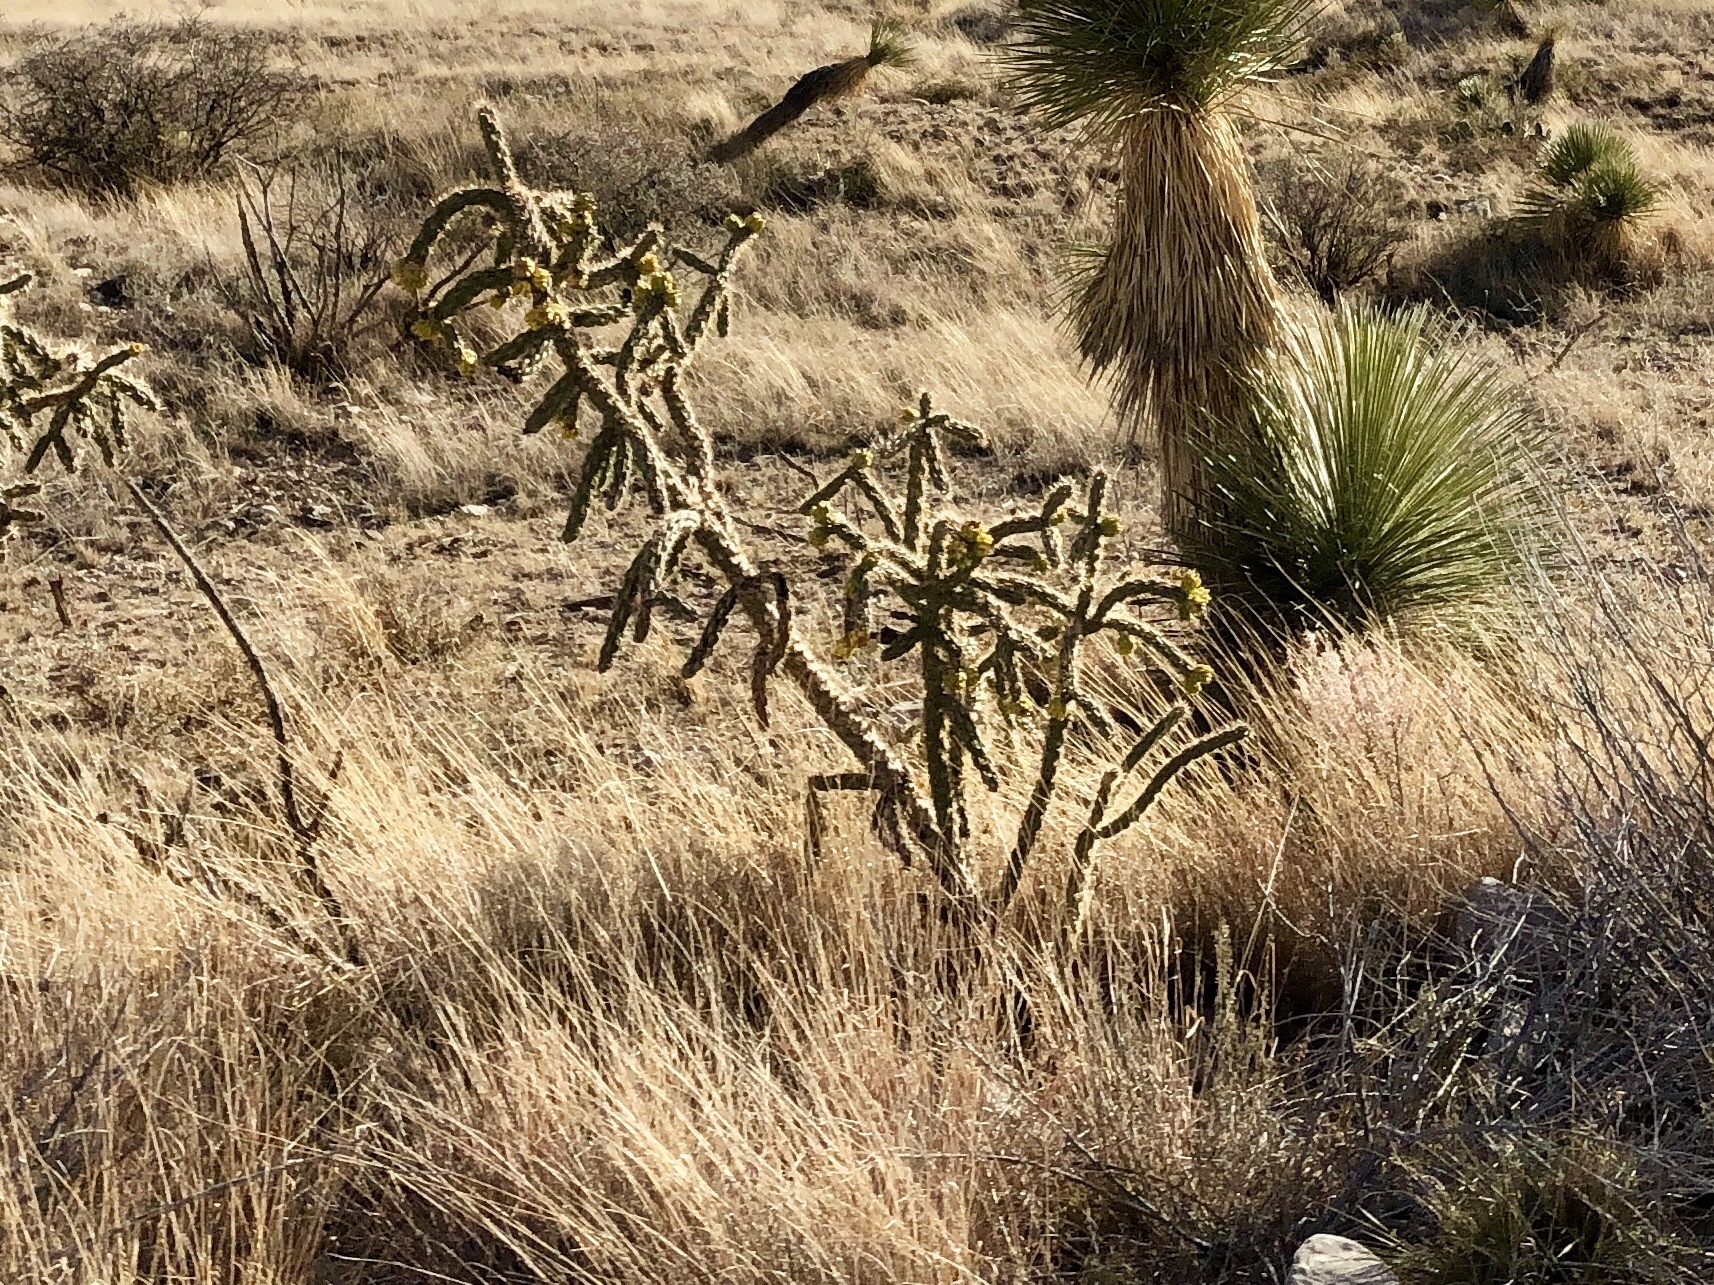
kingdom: Plantae
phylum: Tracheophyta
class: Magnoliopsida
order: Caryophyllales
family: Cactaceae
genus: Cylindropuntia
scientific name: Cylindropuntia imbricata
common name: Candelabrum cactus
